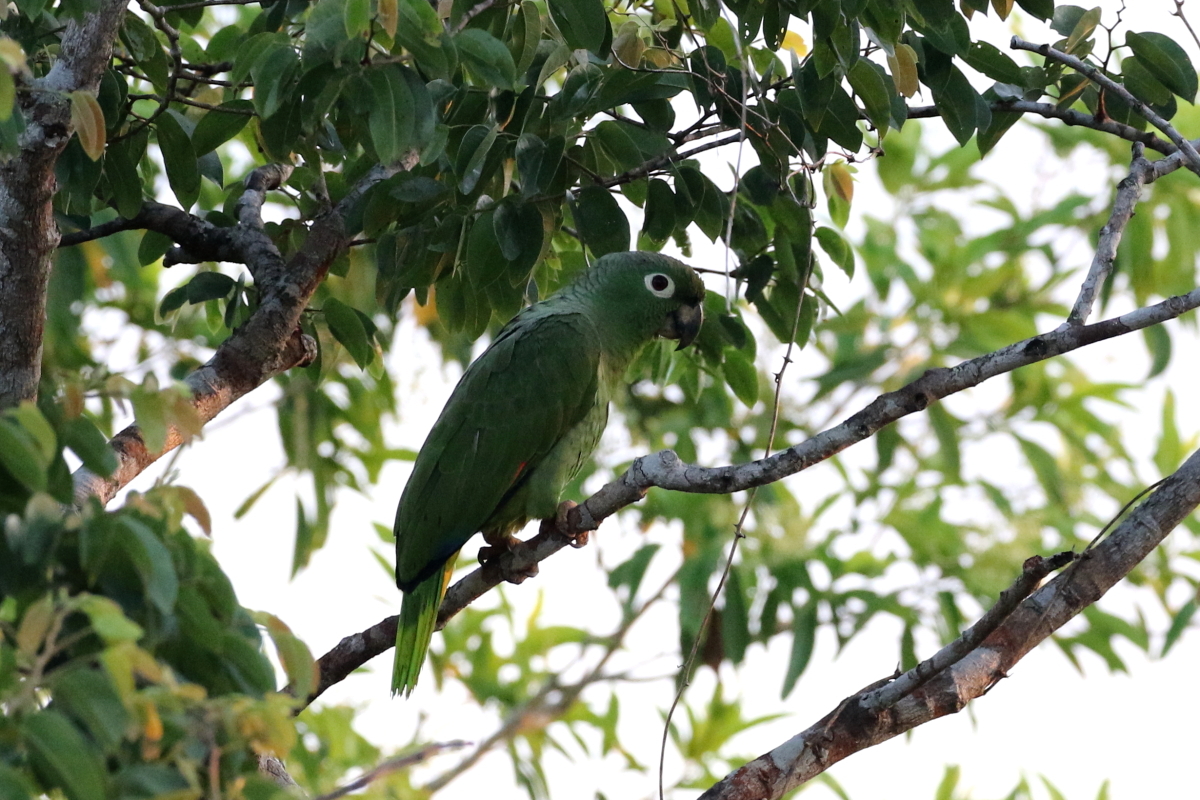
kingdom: Animalia
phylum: Chordata
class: Aves
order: Psittaciformes
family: Psittacidae
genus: Amazona
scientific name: Amazona farinosa
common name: Mealy parrot
